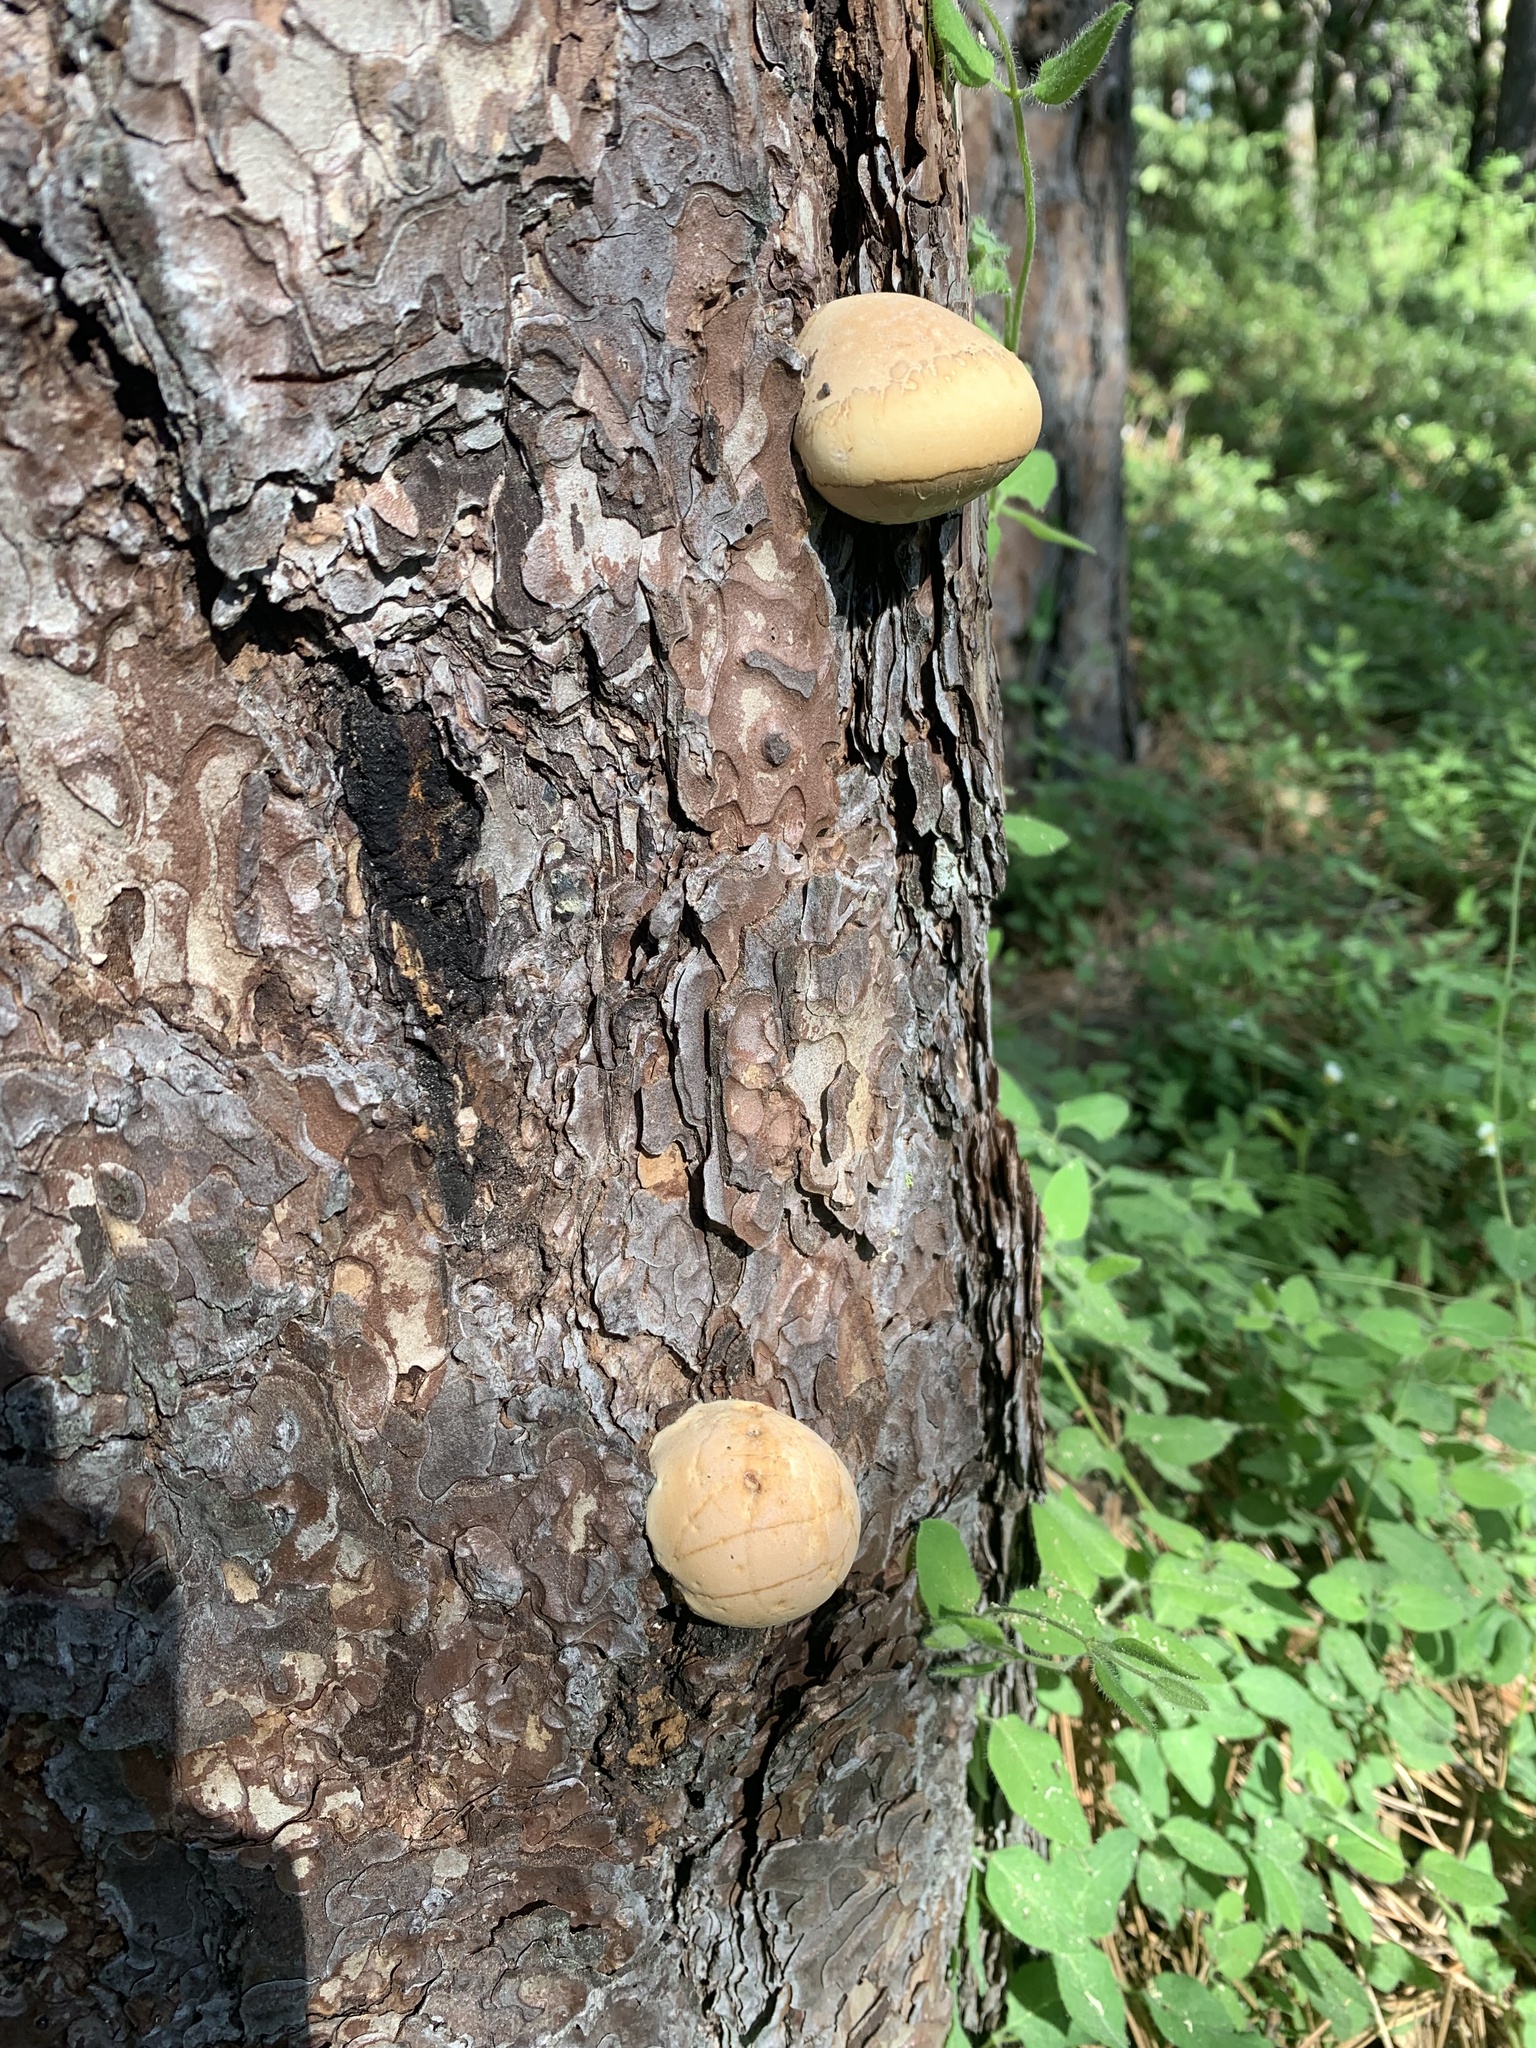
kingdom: Fungi
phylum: Basidiomycota
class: Agaricomycetes
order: Polyporales
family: Polyporaceae
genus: Cryptoporus
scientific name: Cryptoporus volvatus
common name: Veiled polypore
